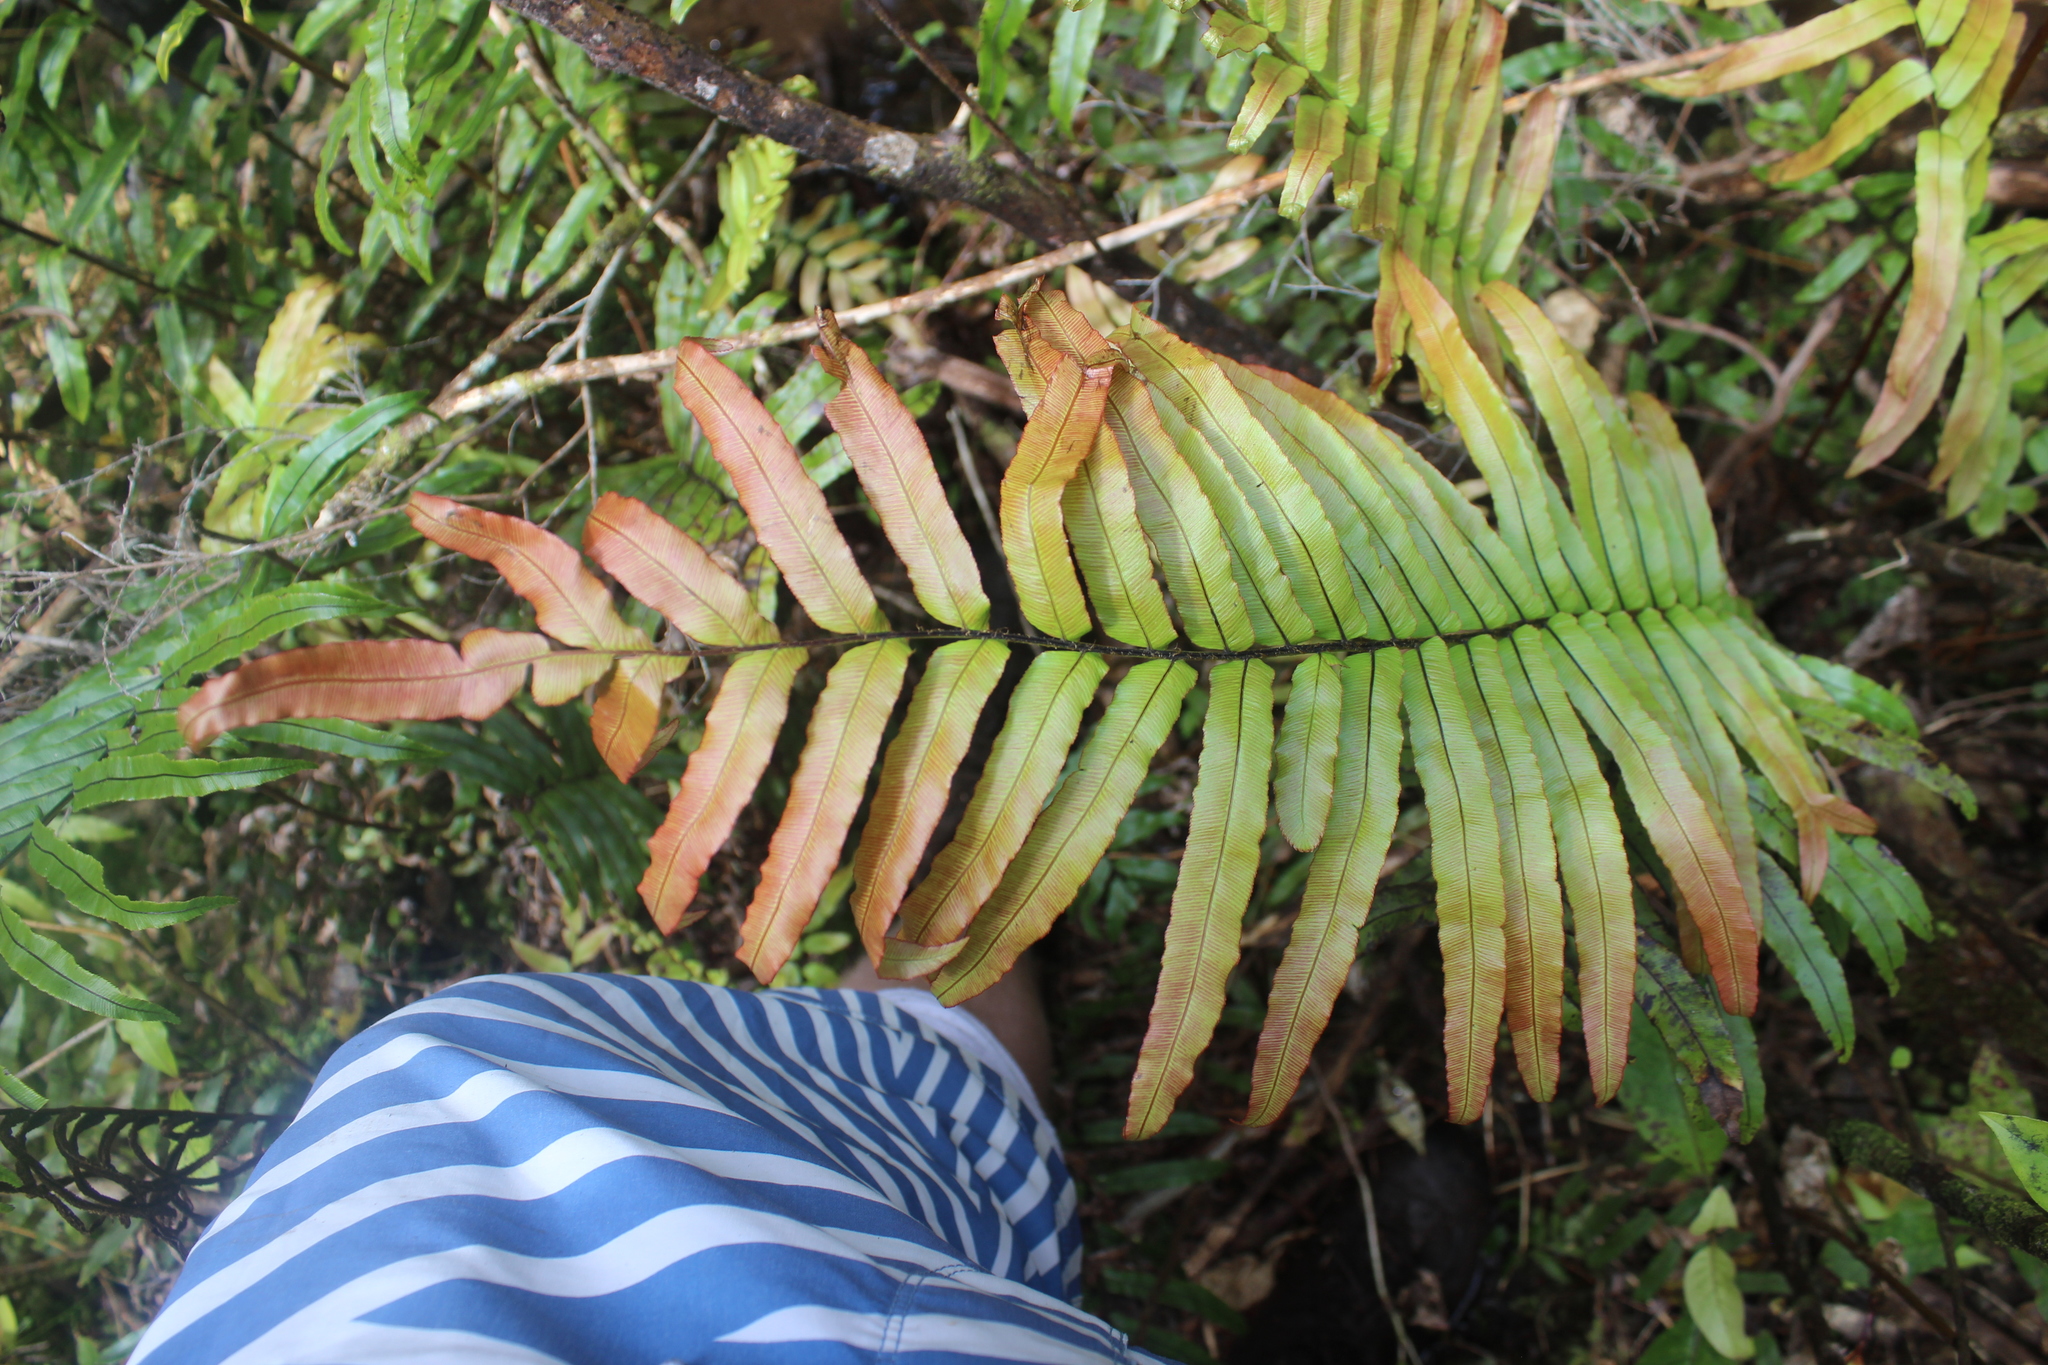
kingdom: Plantae
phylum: Tracheophyta
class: Polypodiopsida
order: Polypodiales
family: Blechnaceae
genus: Parablechnum
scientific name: Parablechnum minus
